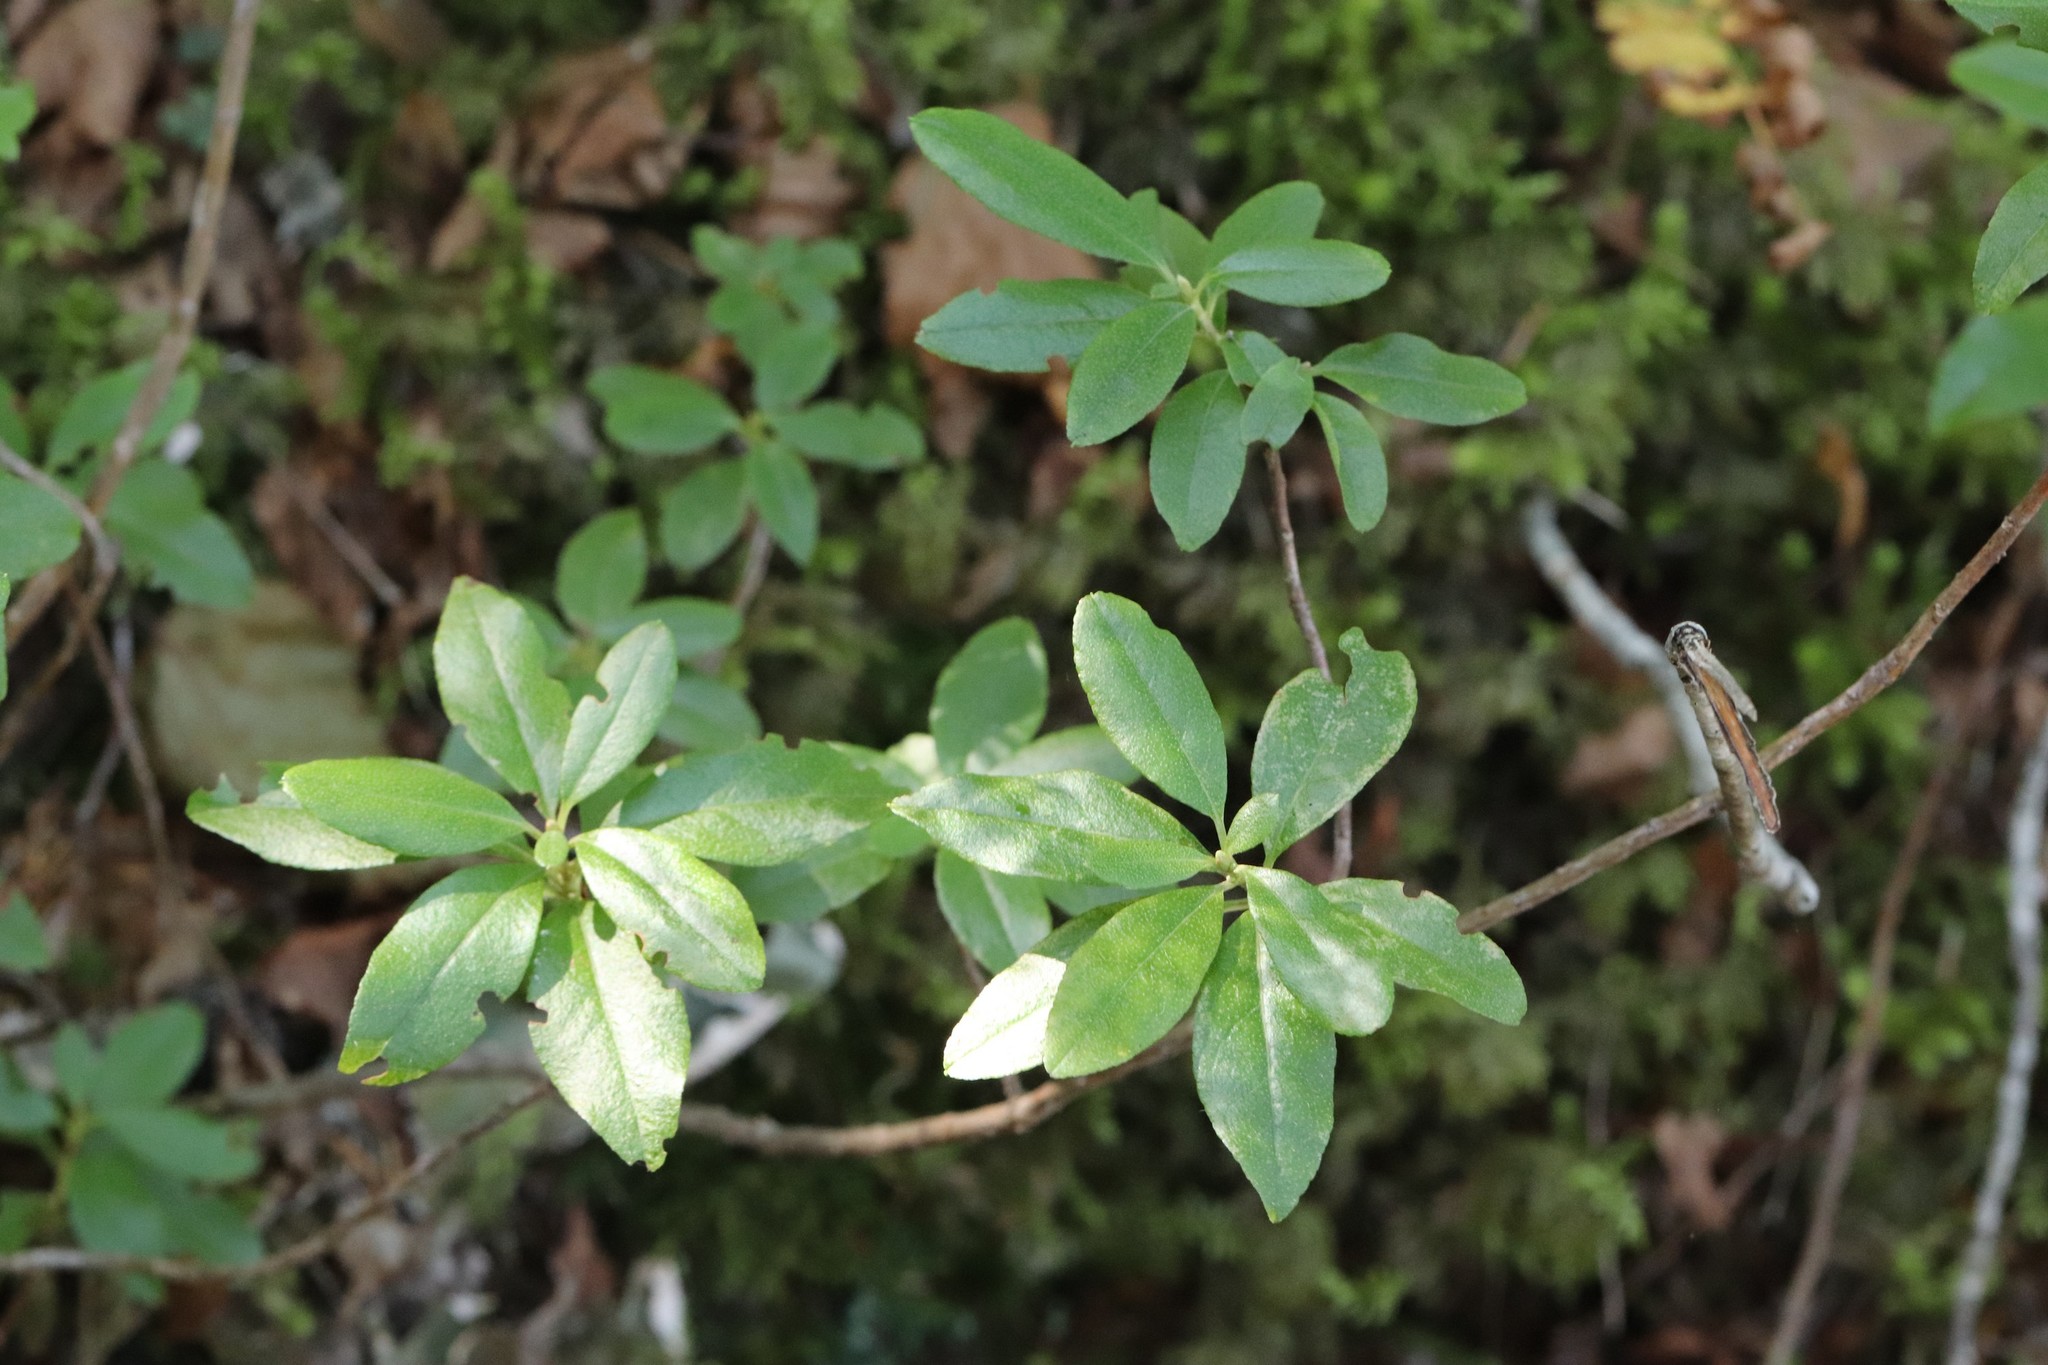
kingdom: Plantae
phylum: Tracheophyta
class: Magnoliopsida
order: Ericales
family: Ericaceae
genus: Rhododendron
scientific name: Rhododendron mucronulatum
